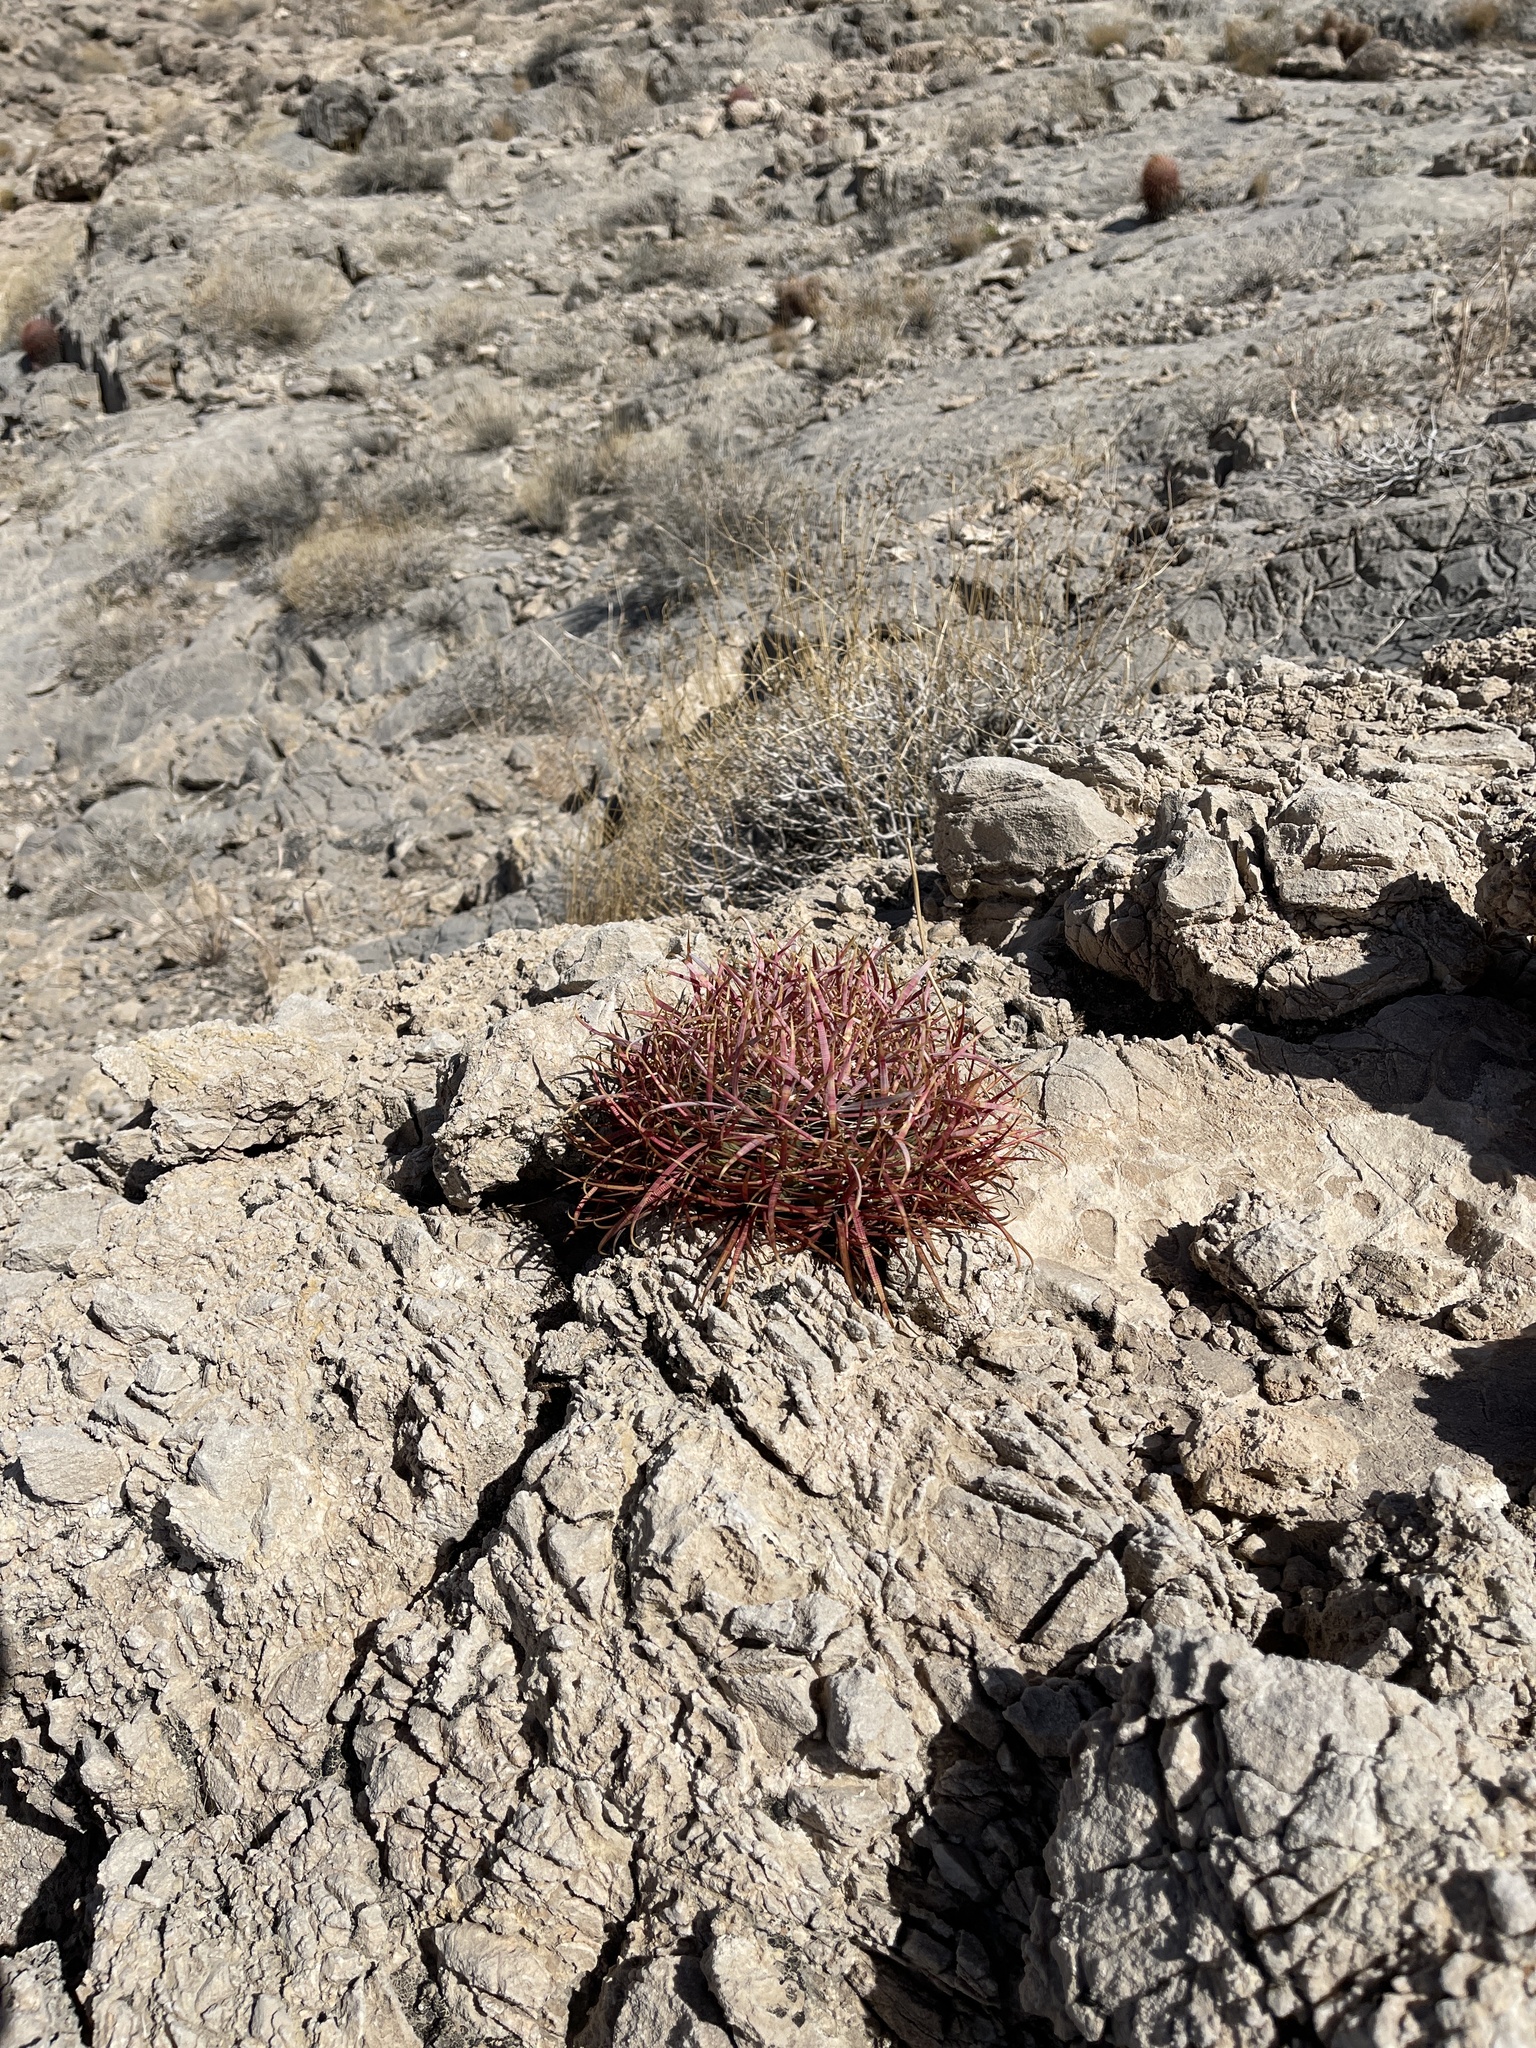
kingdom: Plantae
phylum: Tracheophyta
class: Magnoliopsida
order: Caryophyllales
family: Cactaceae
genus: Ferocactus
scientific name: Ferocactus cylindraceus
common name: California barrel cactus
